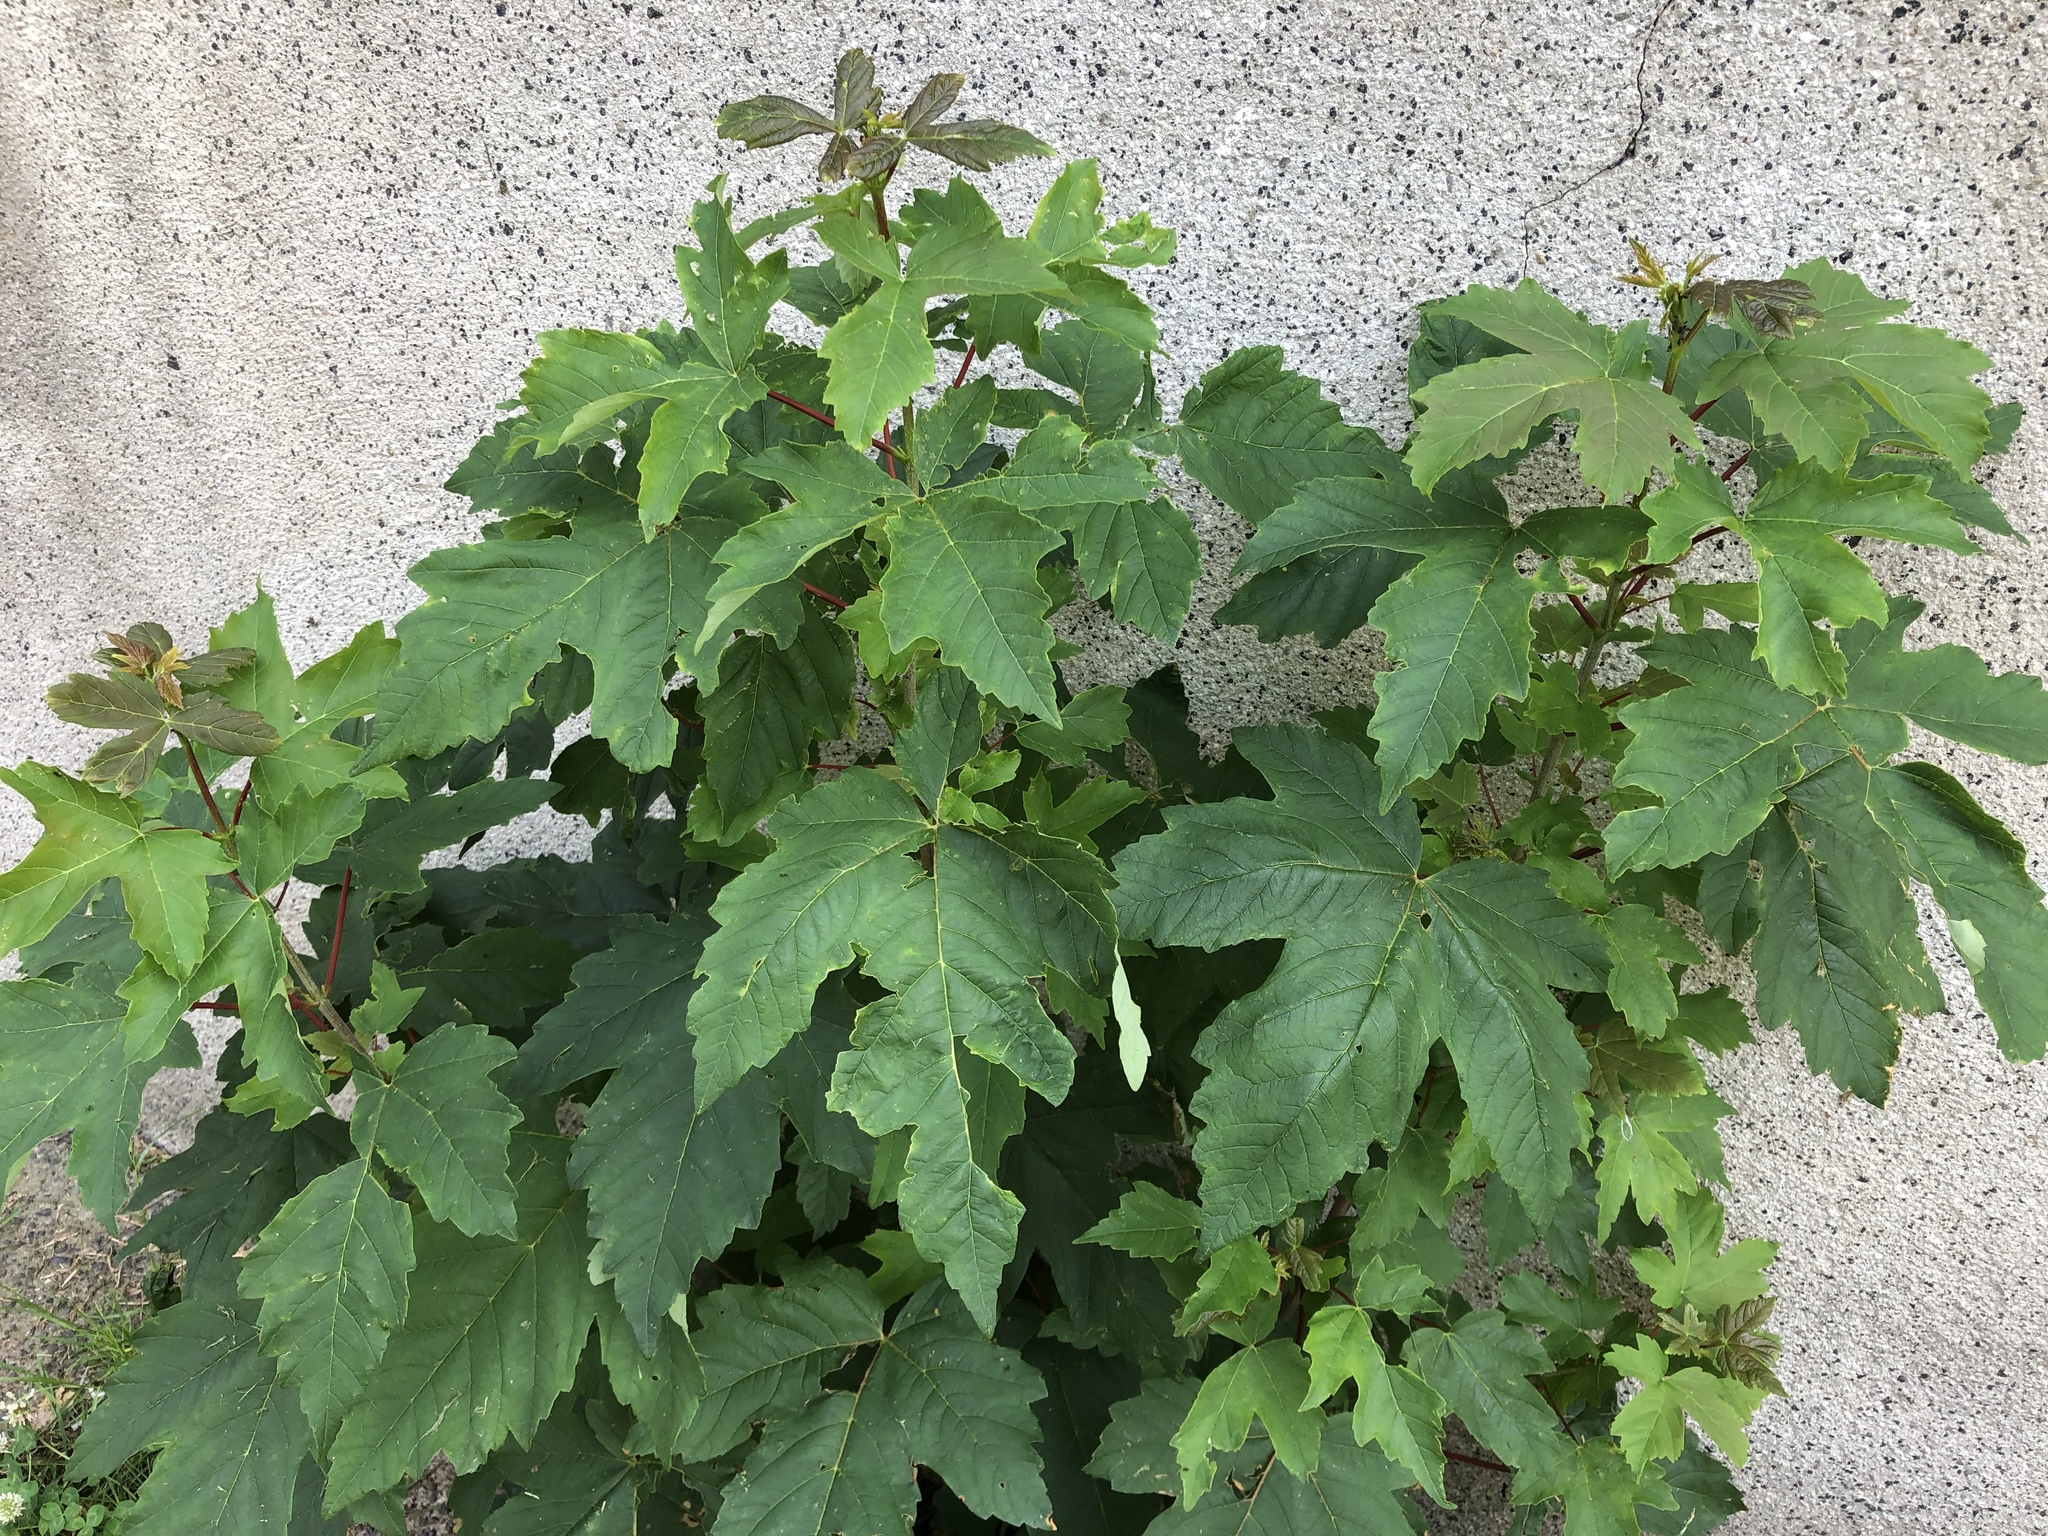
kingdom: Plantae
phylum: Tracheophyta
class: Magnoliopsida
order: Sapindales
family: Sapindaceae
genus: Acer
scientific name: Acer pseudoplatanus
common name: Sycamore
